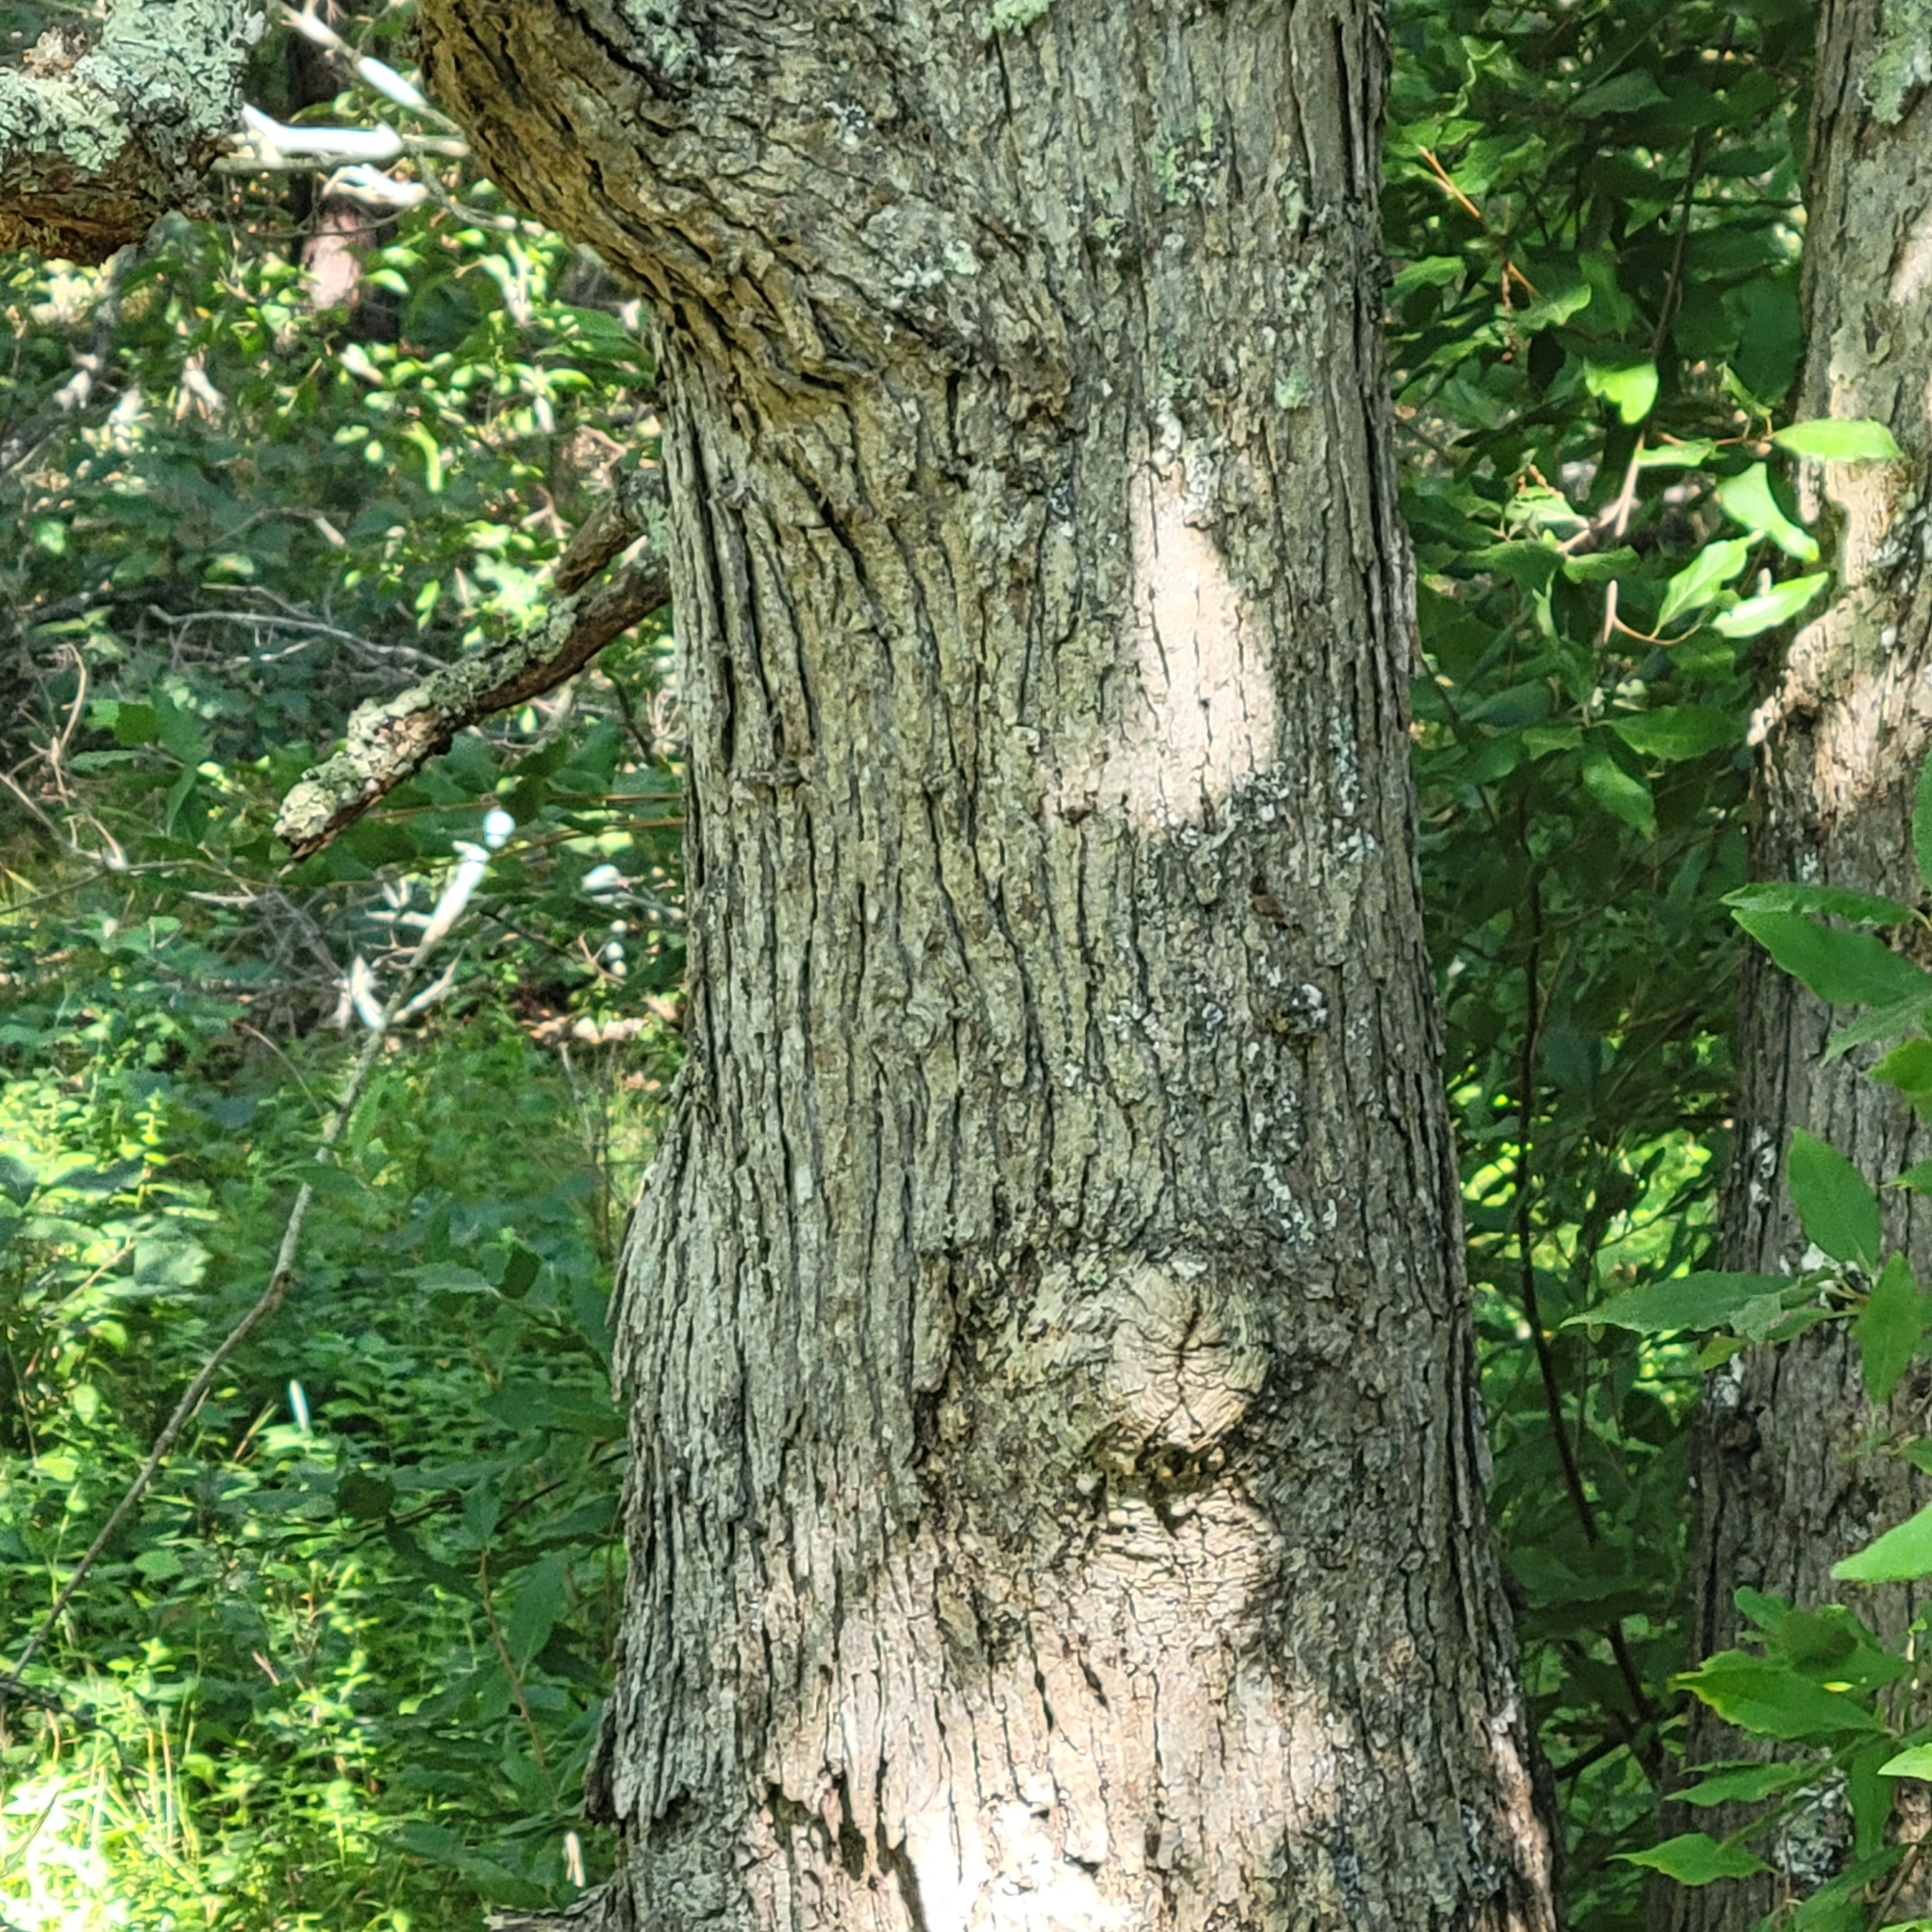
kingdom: Plantae
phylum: Tracheophyta
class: Magnoliopsida
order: Fagales
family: Fagaceae
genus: Quercus
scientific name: Quercus stellata
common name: Post oak
